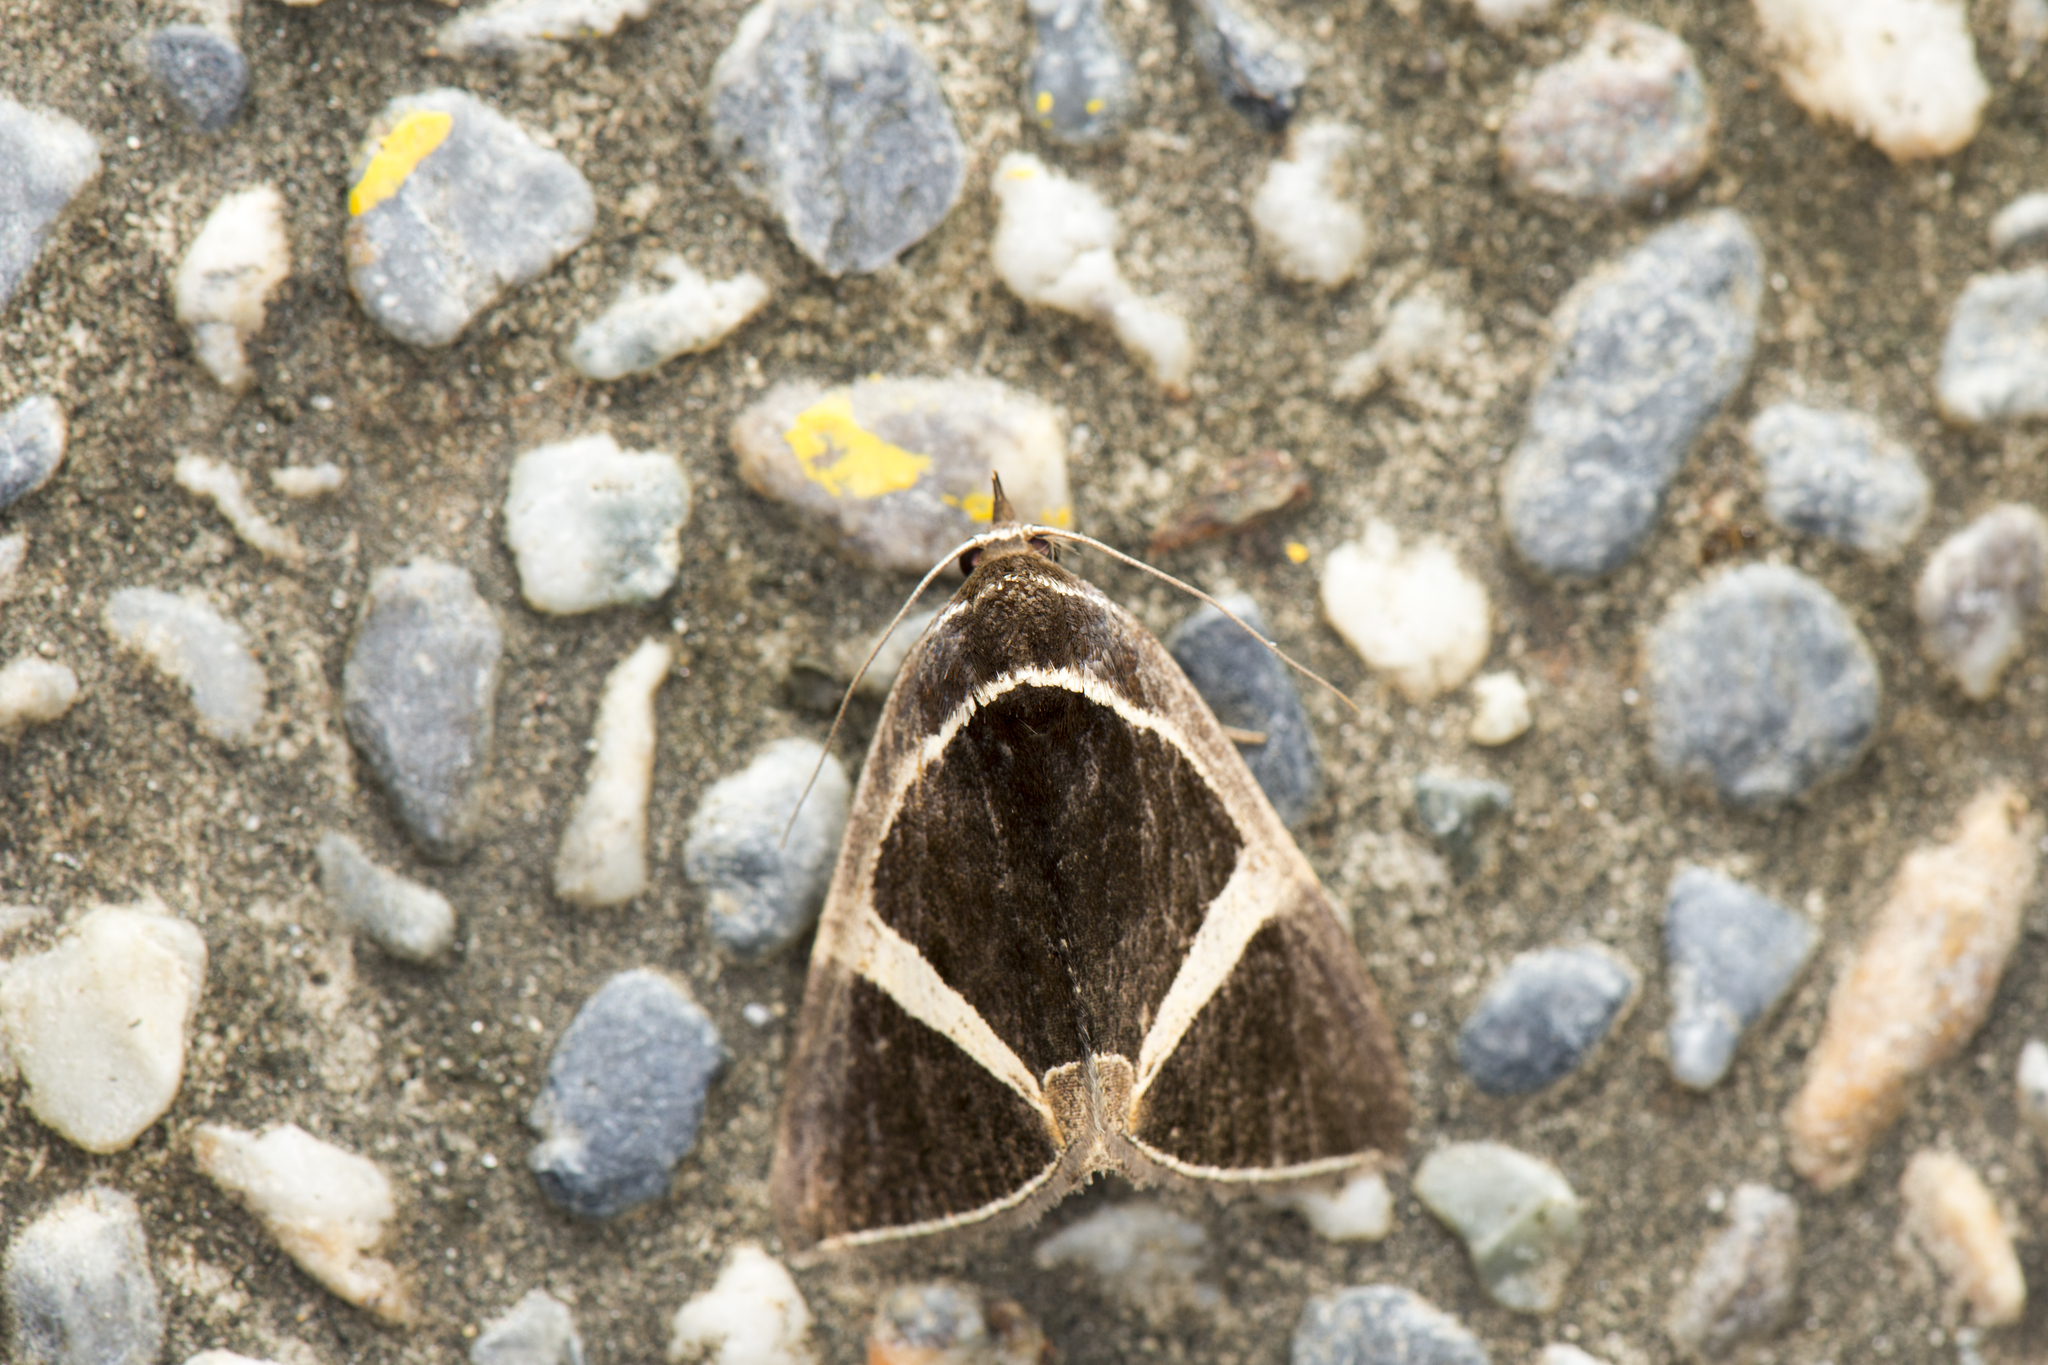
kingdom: Animalia
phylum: Arthropoda
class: Insecta
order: Lepidoptera
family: Erebidae
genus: Fodina
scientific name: Fodina kosemponis
